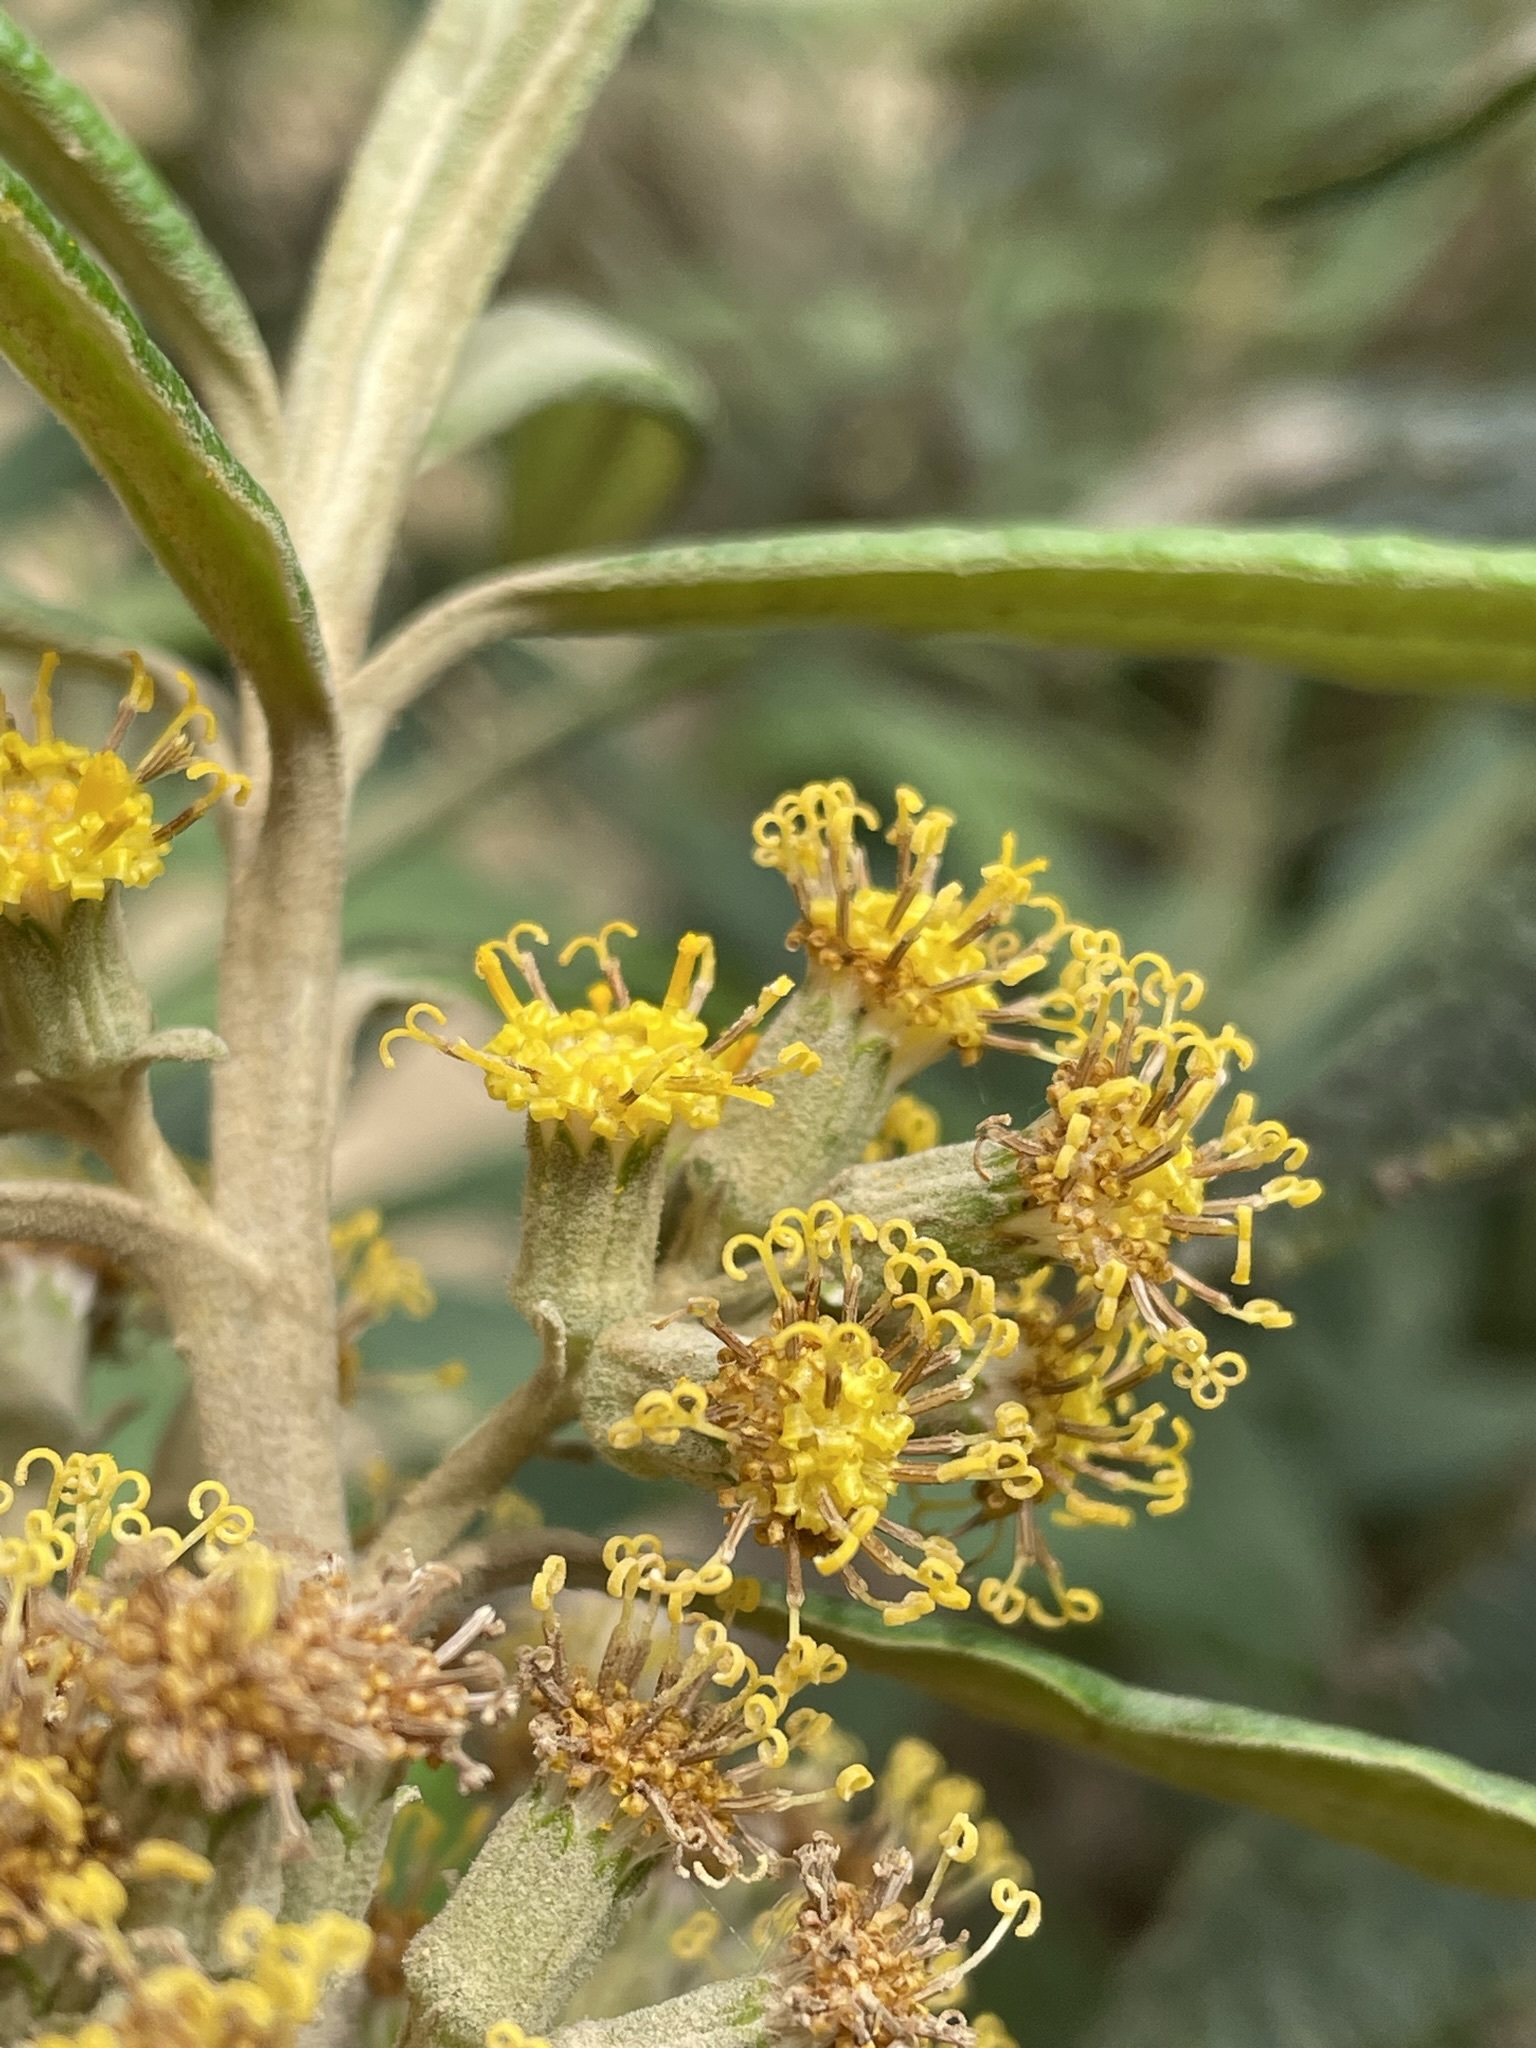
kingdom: Plantae
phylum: Tracheophyta
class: Magnoliopsida
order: Asterales
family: Asteraceae
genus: Bedfordia
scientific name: Bedfordia salicina
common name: Blanketleaf
